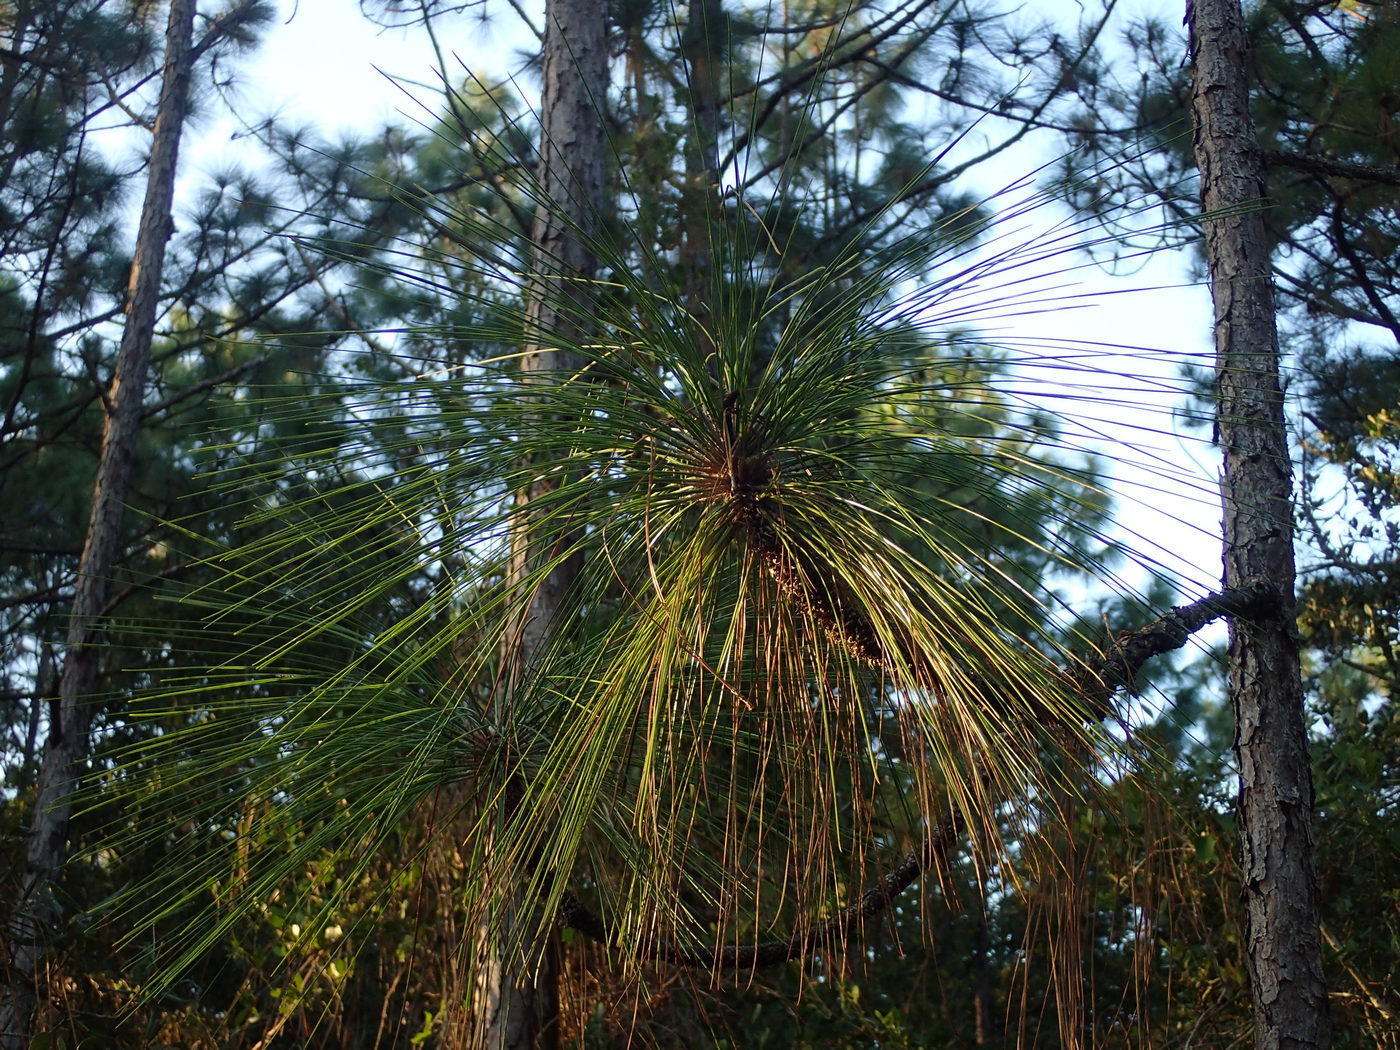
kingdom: Plantae
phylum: Tracheophyta
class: Pinopsida
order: Pinales
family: Pinaceae
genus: Pinus
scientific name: Pinus palustris
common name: Longleaf pine
